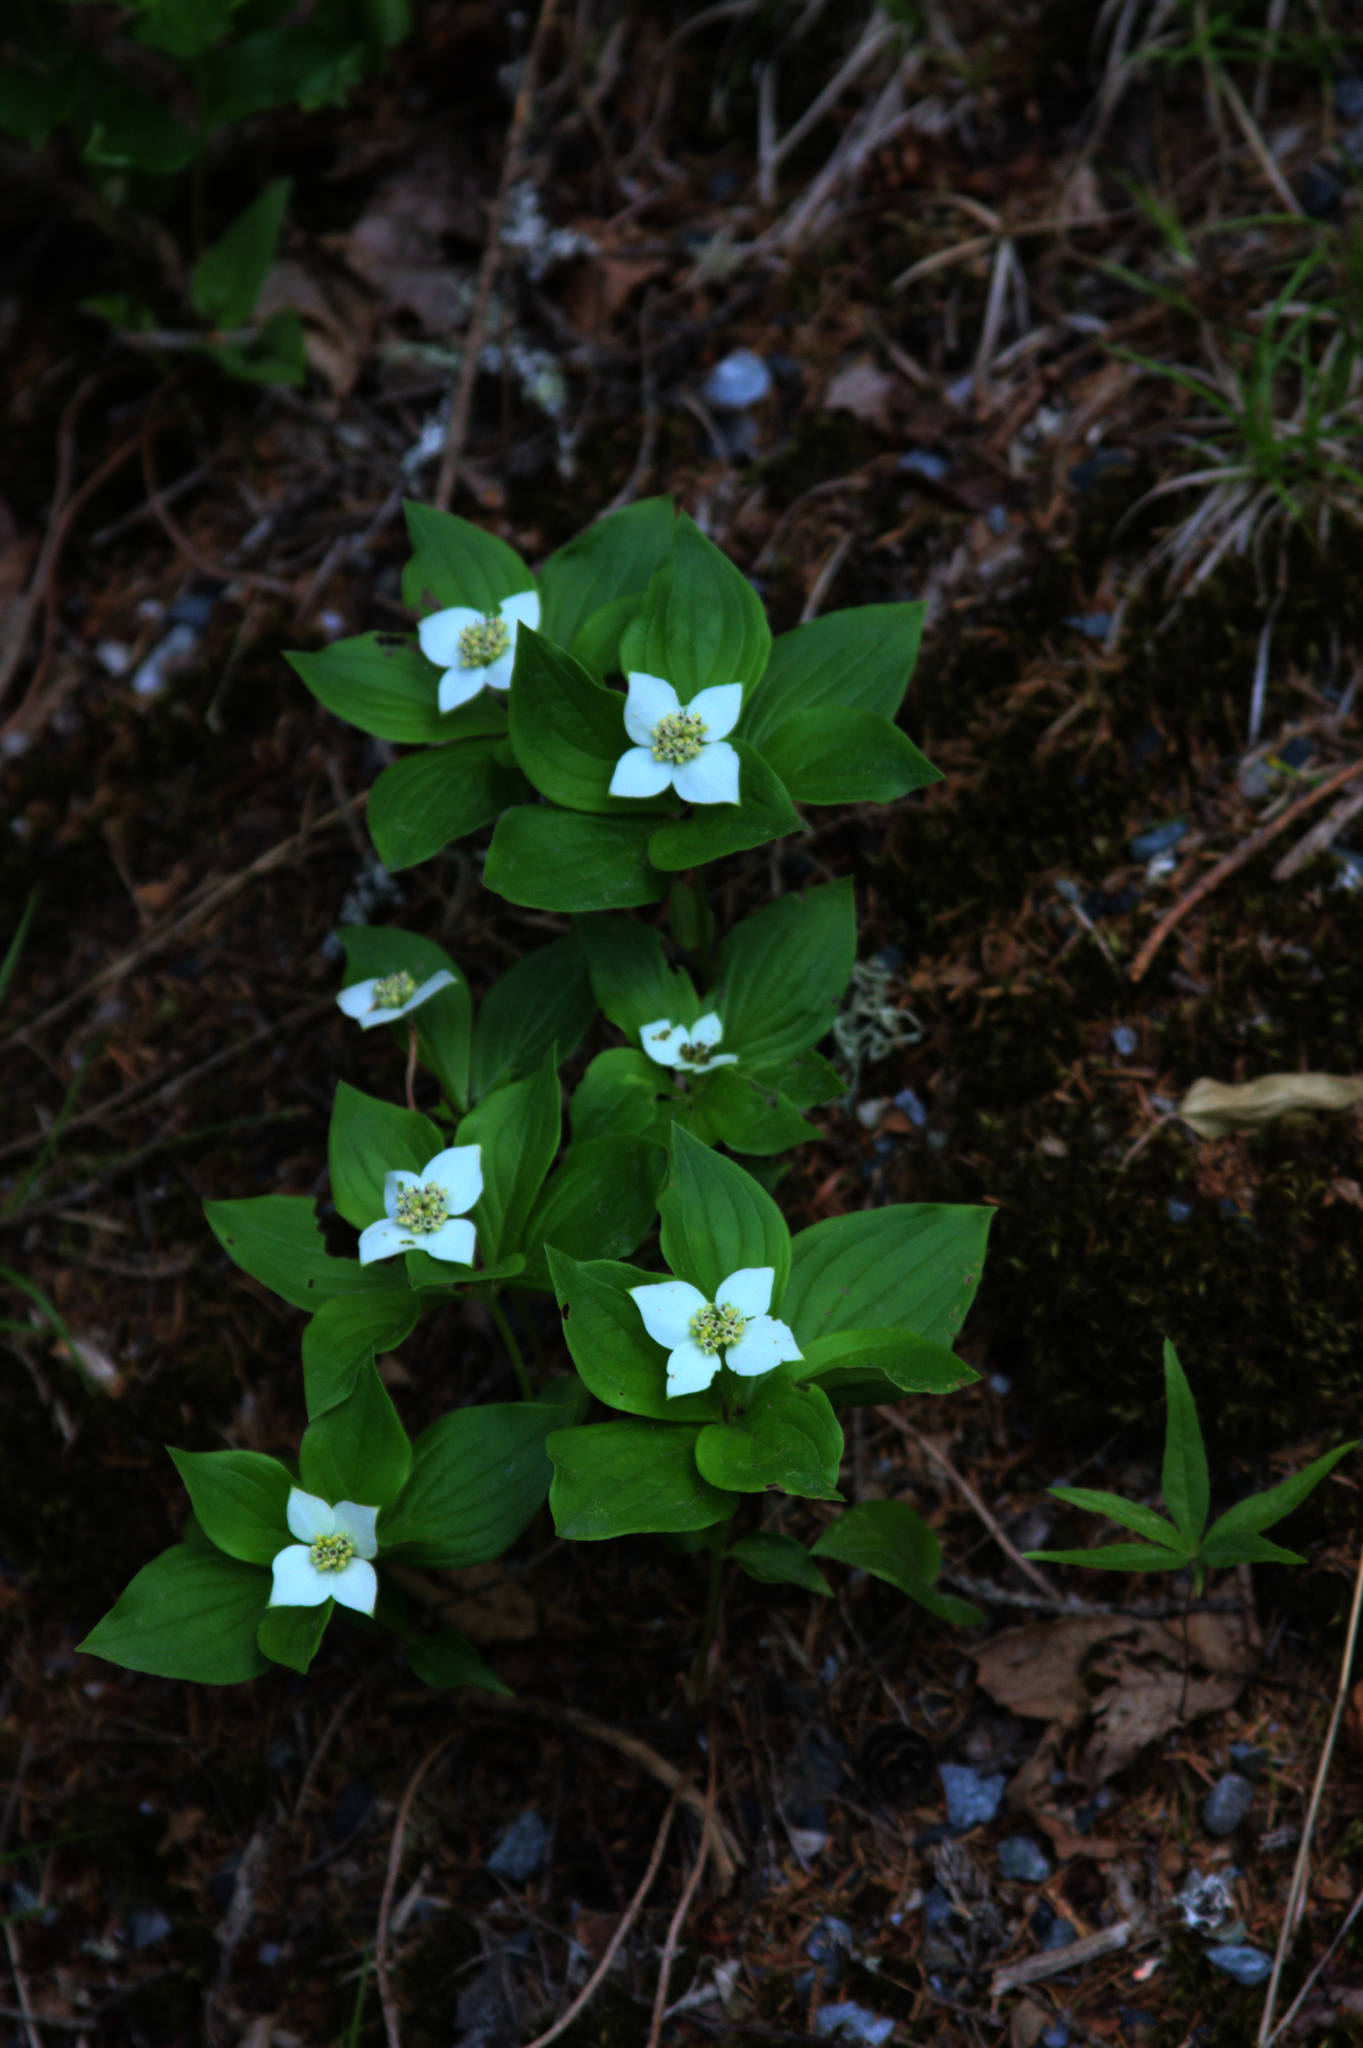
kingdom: Plantae
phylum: Tracheophyta
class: Magnoliopsida
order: Cornales
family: Cornaceae
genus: Cornus
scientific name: Cornus canadensis
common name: Creeping dogwood
